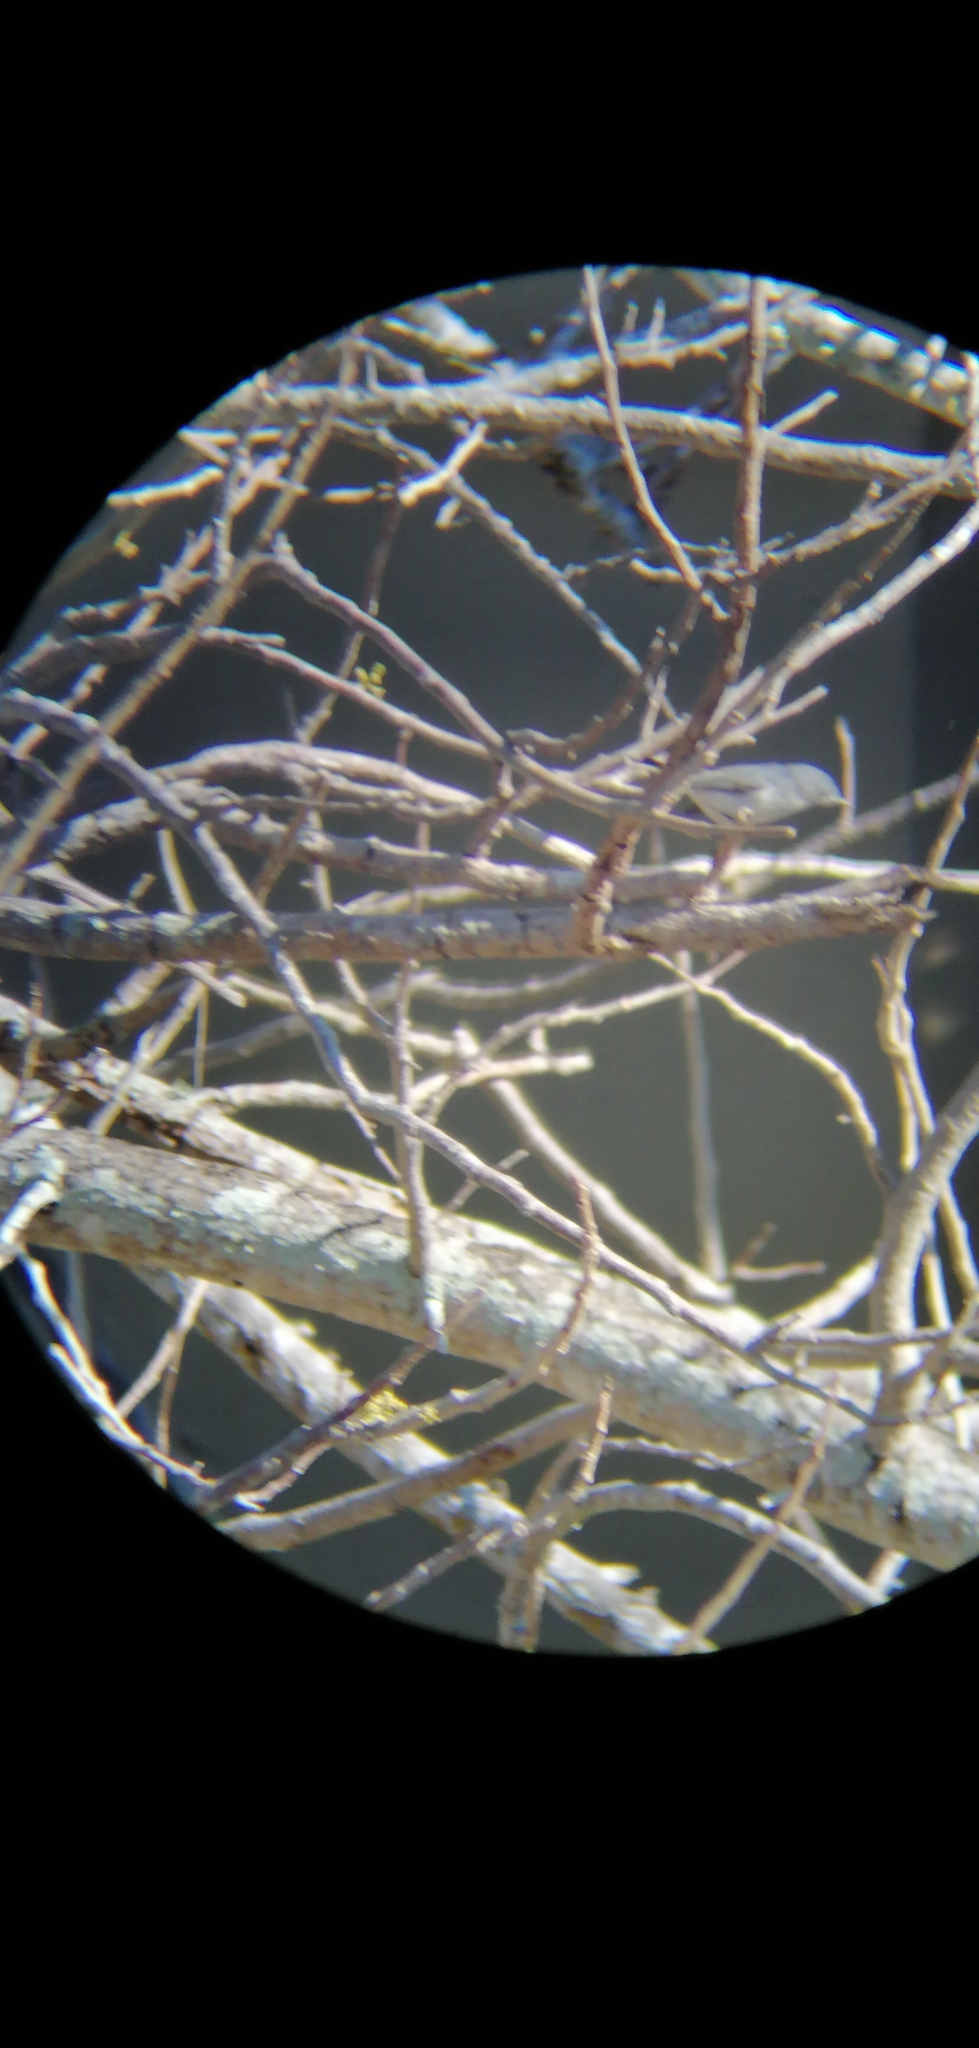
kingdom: Animalia
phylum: Chordata
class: Aves
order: Passeriformes
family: Polioptilidae
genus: Polioptila
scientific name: Polioptila caerulea
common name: Blue-gray gnatcatcher
